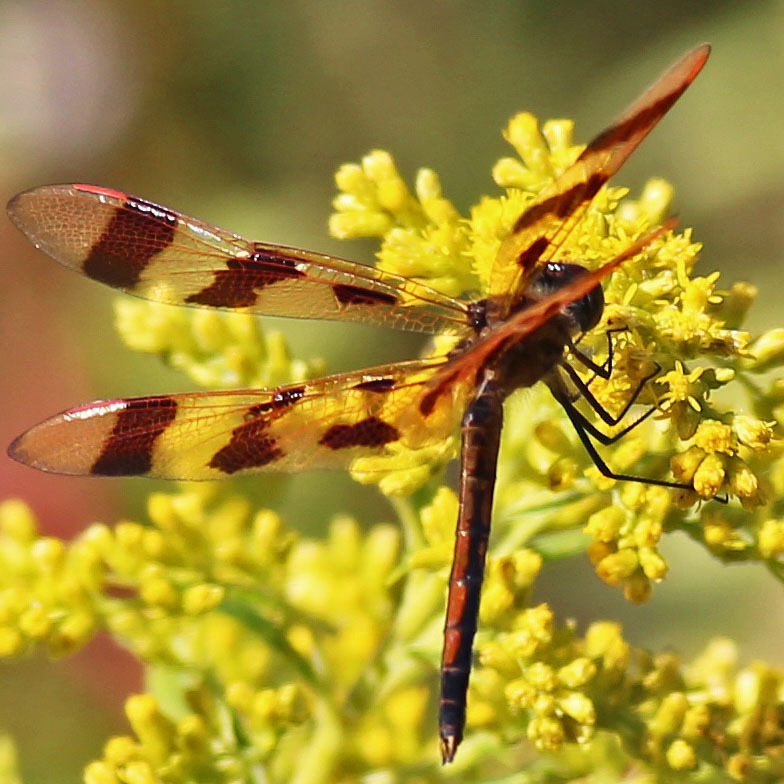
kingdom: Animalia
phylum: Arthropoda
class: Insecta
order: Odonata
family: Libellulidae
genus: Celithemis
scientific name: Celithemis eponina
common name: Halloween pennant
